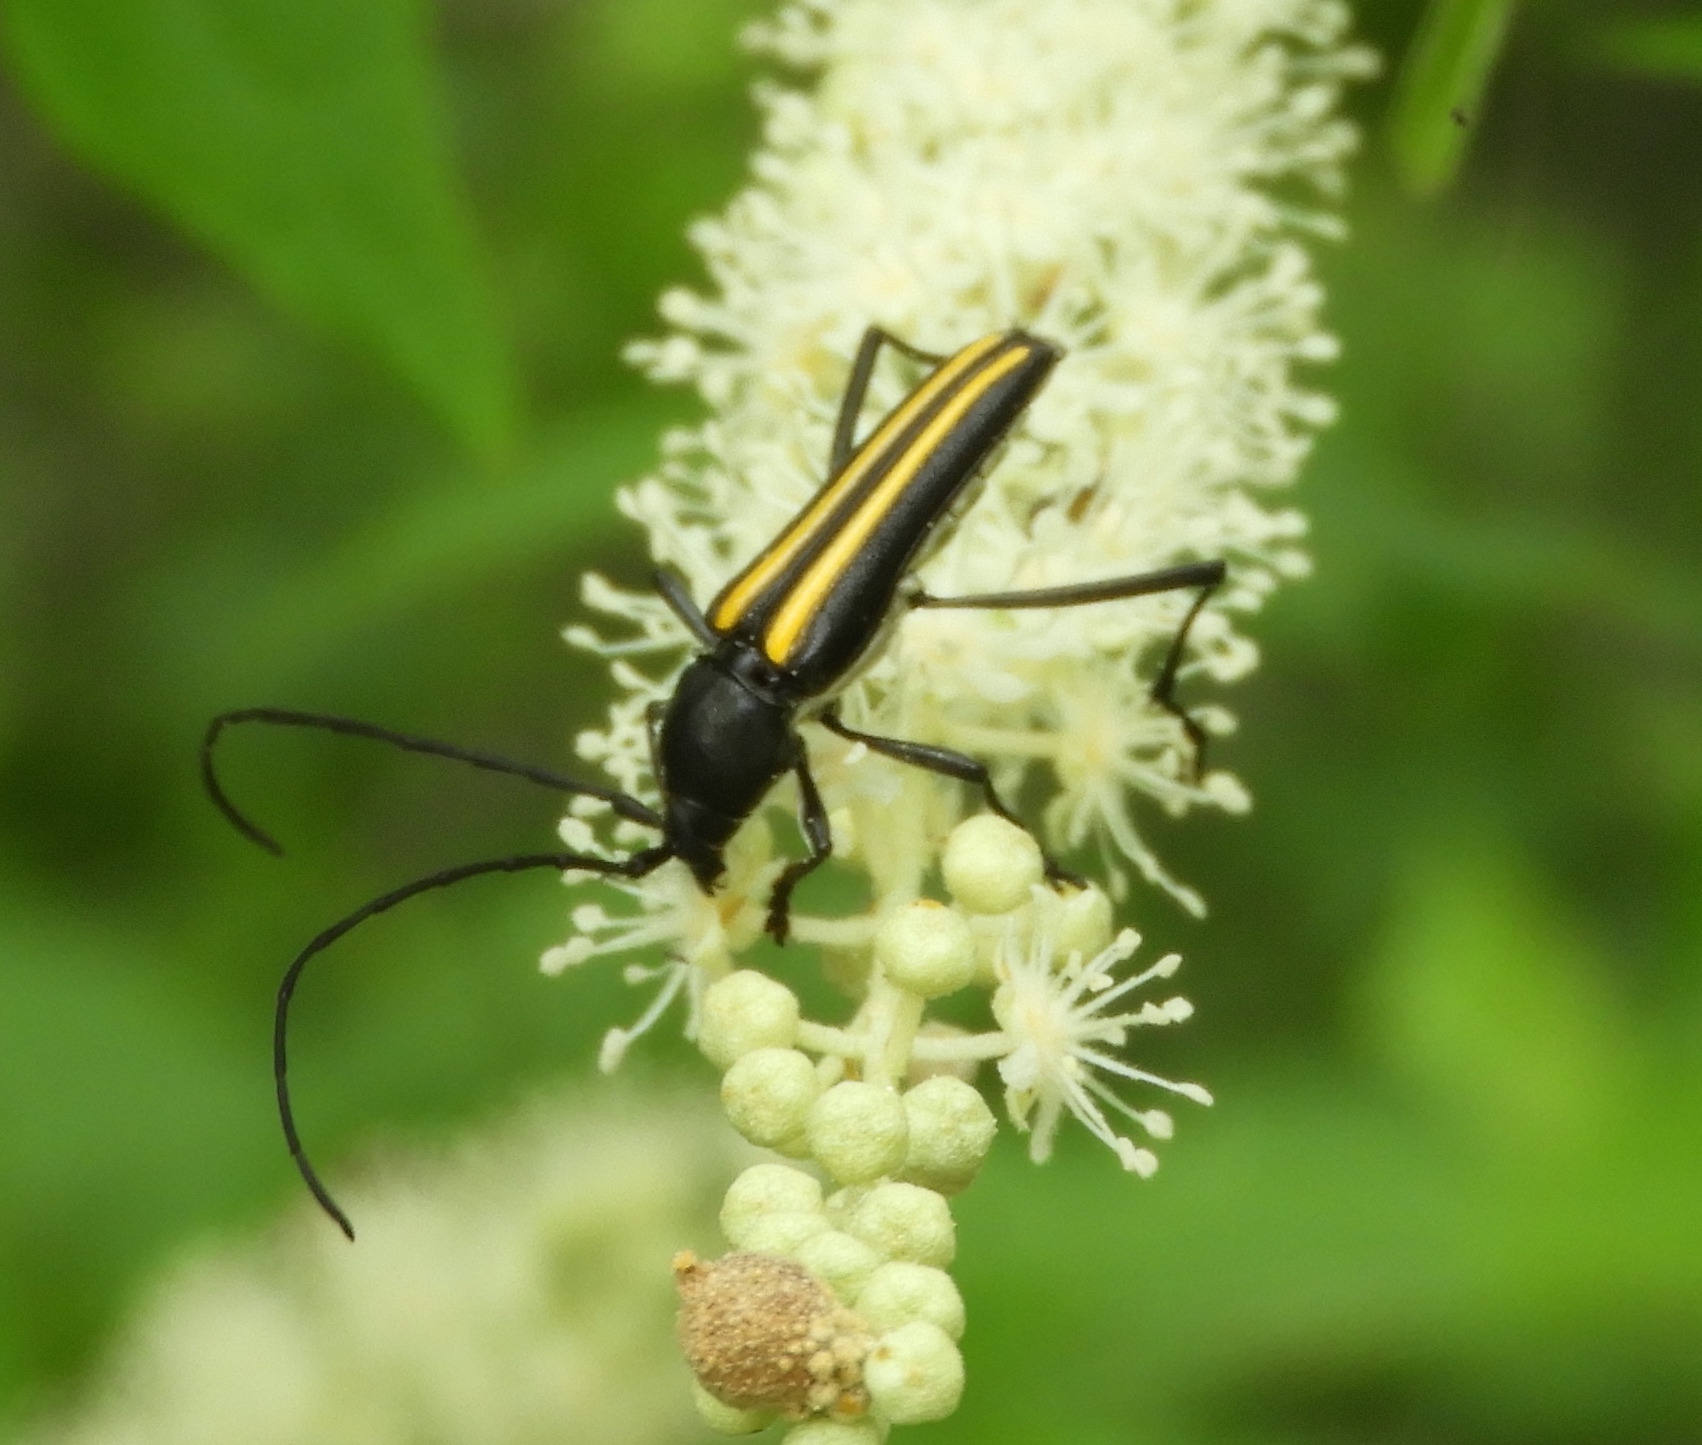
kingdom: Animalia
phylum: Arthropoda
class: Insecta
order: Coleoptera
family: Cerambycidae
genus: Lophalia
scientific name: Lophalia prolata
